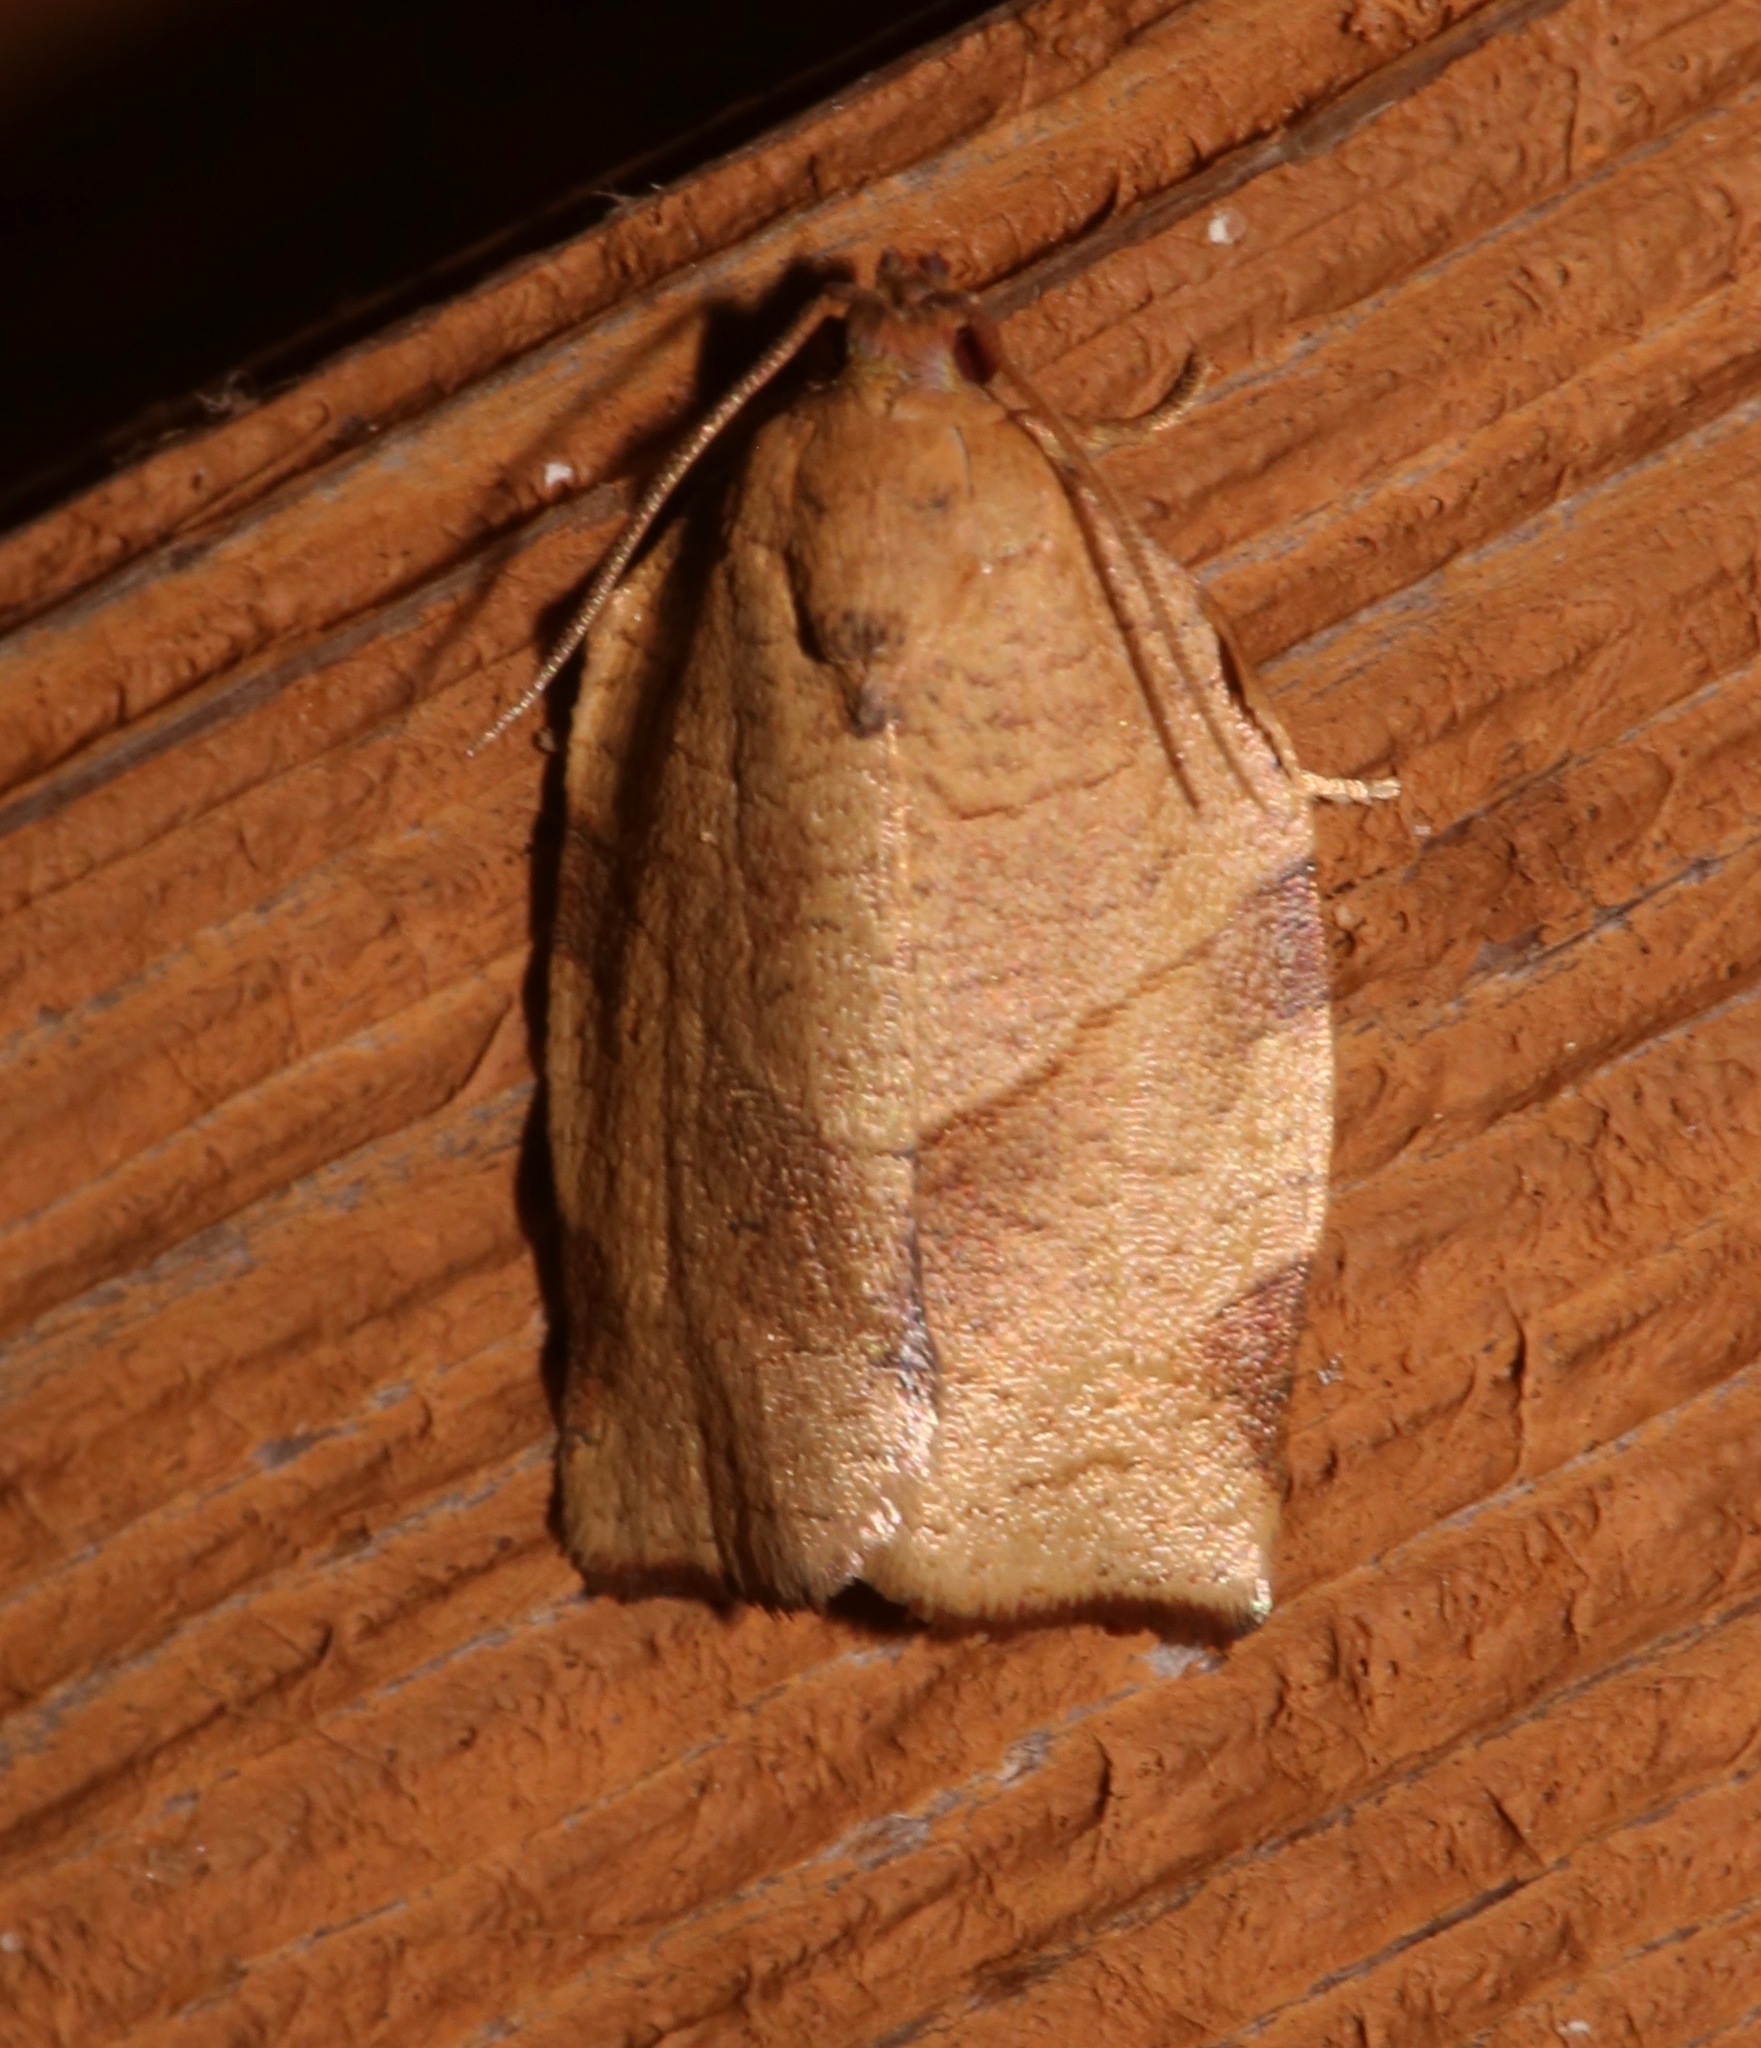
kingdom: Animalia
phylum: Arthropoda
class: Insecta
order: Lepidoptera
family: Tortricidae
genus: Choristoneura
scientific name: Choristoneura rosaceana
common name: Oblique-banded leafroller moth
